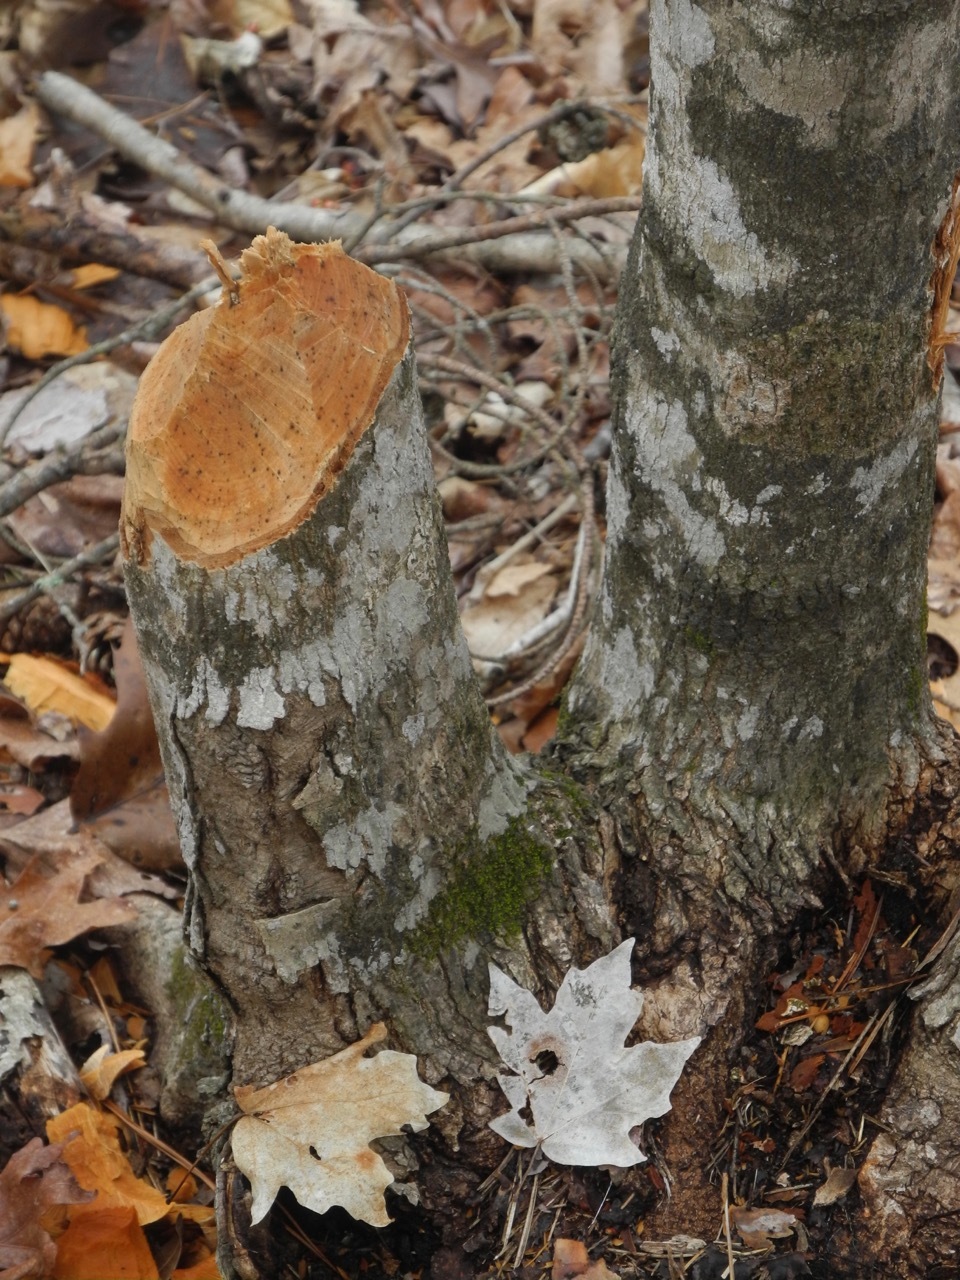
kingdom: Plantae
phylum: Tracheophyta
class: Magnoliopsida
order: Sapindales
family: Sapindaceae
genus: Acer
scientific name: Acer floridanum
